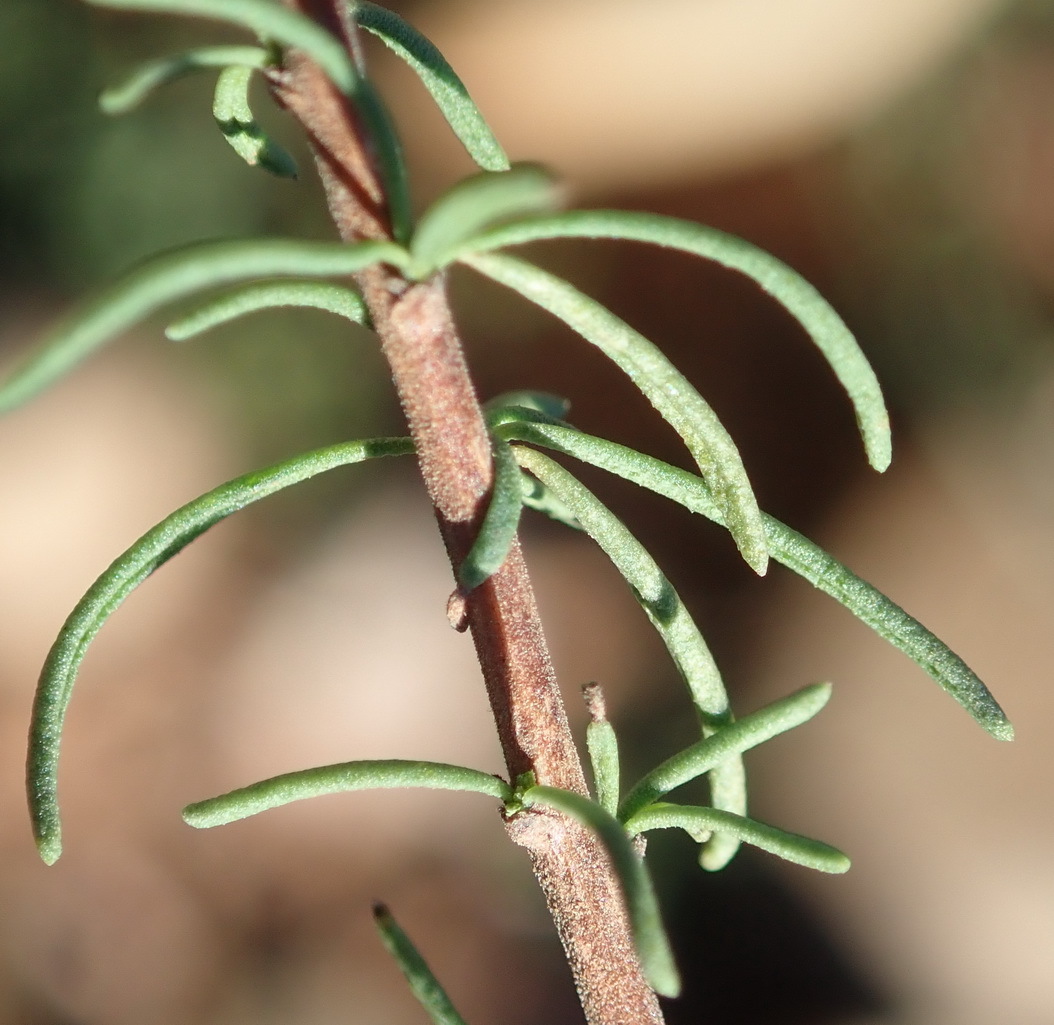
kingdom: Plantae
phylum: Tracheophyta
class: Magnoliopsida
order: Lamiales
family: Scrophulariaceae
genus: Selago
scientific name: Selago geniculata
